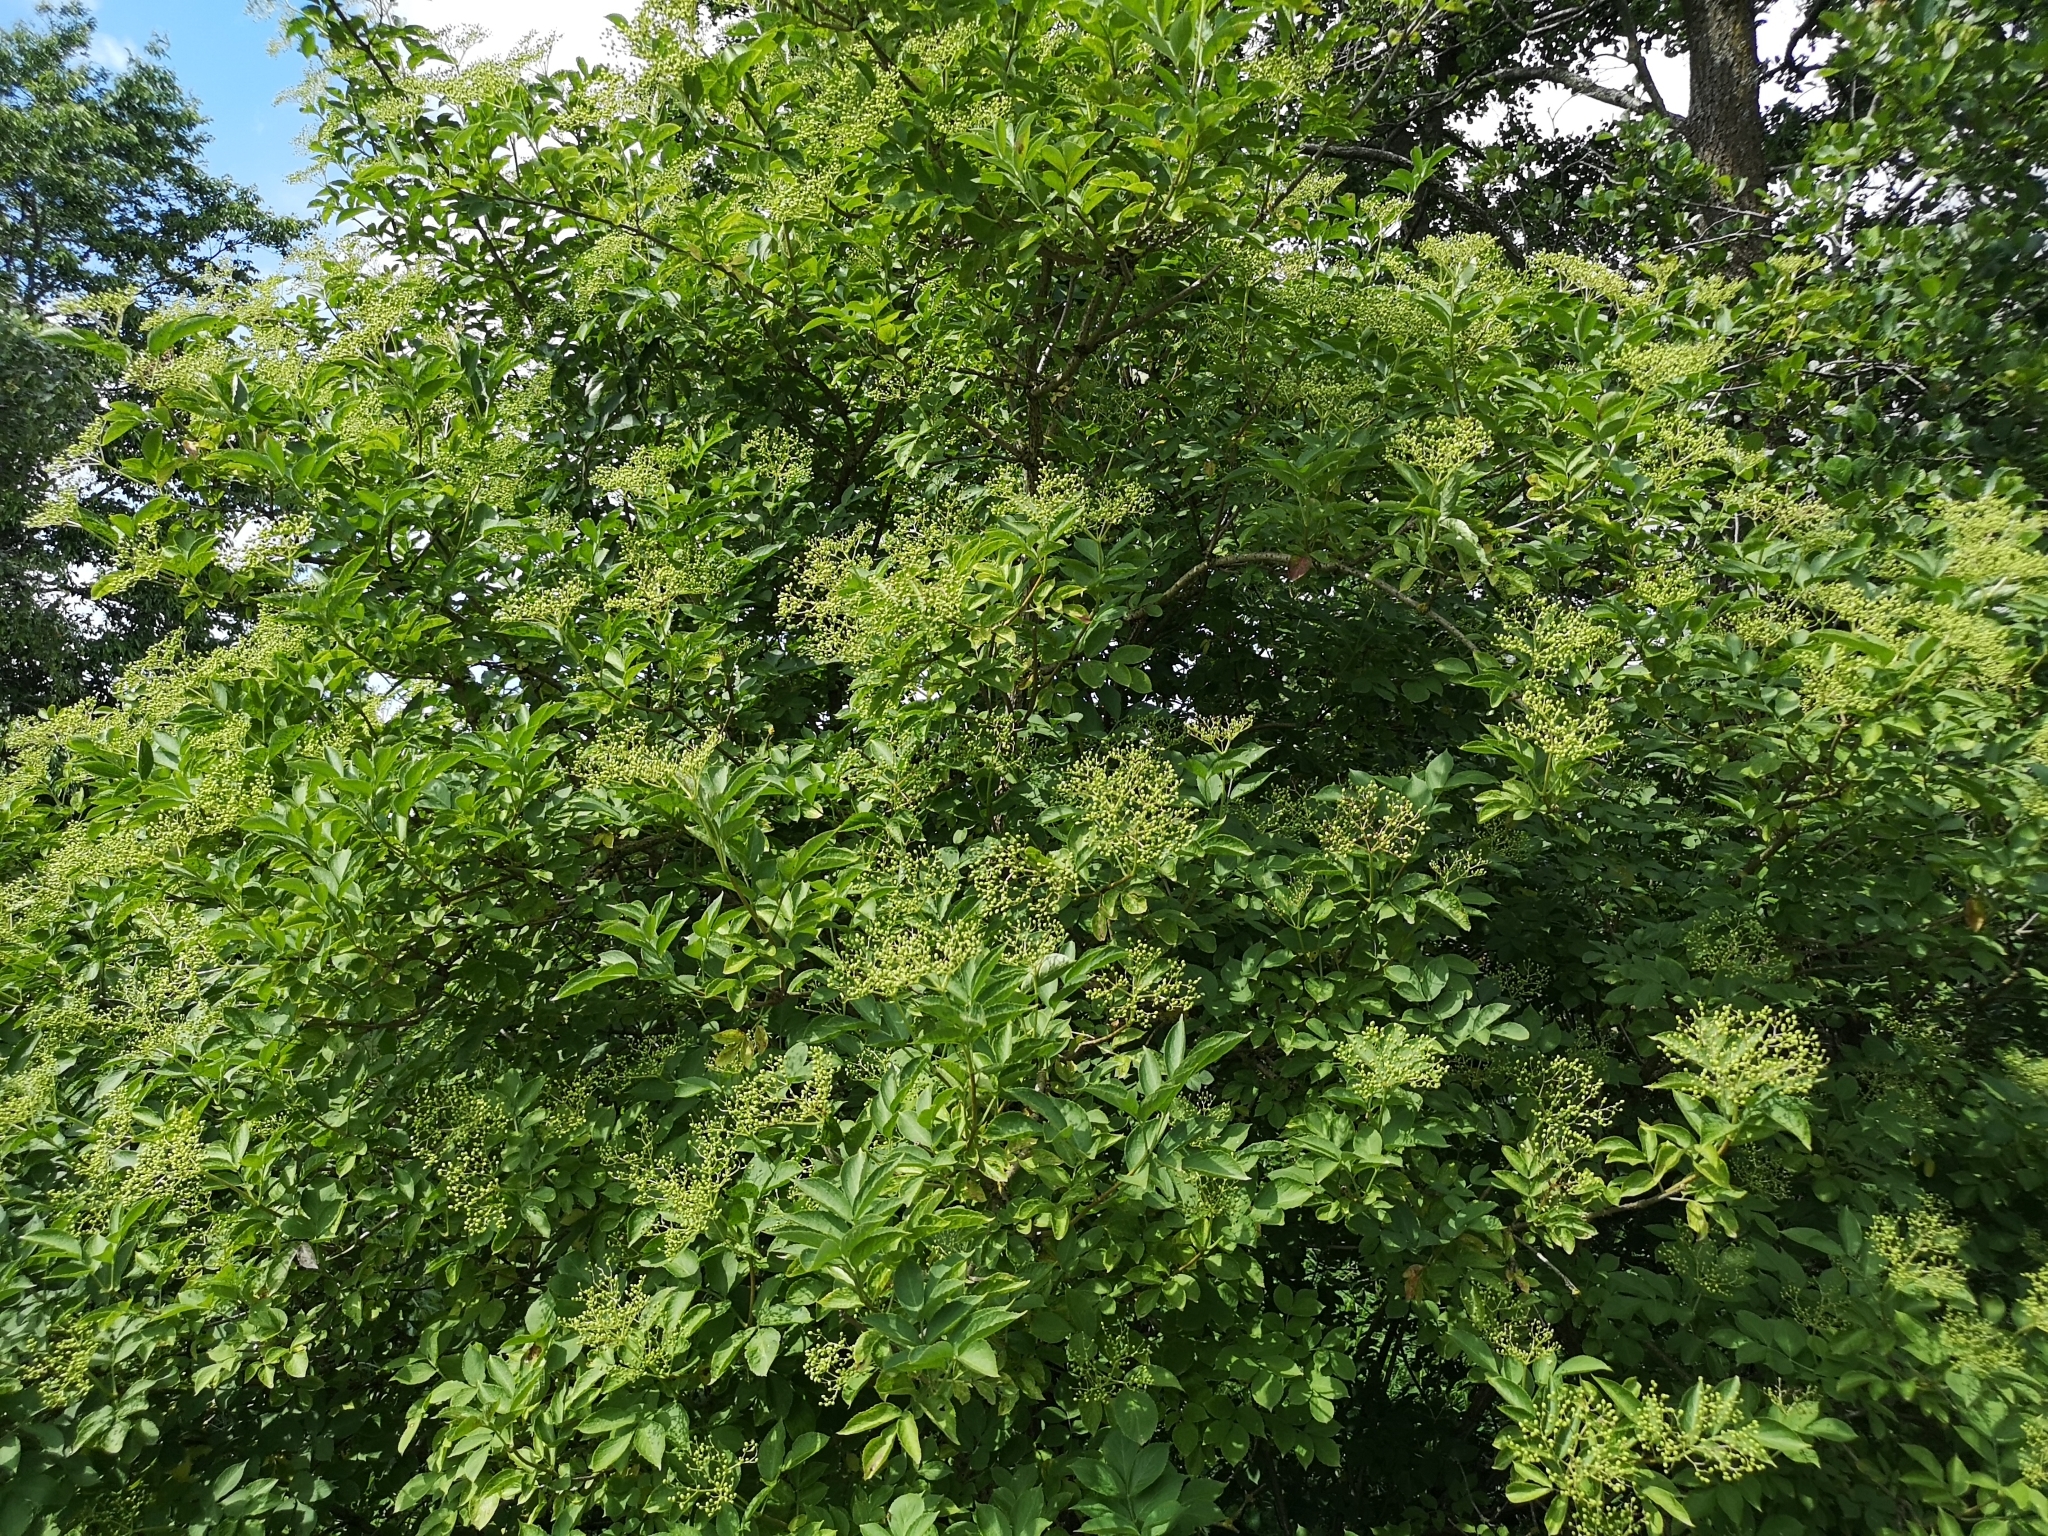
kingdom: Plantae
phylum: Tracheophyta
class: Magnoliopsida
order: Dipsacales
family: Viburnaceae
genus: Sambucus
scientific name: Sambucus nigra
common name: Elder
